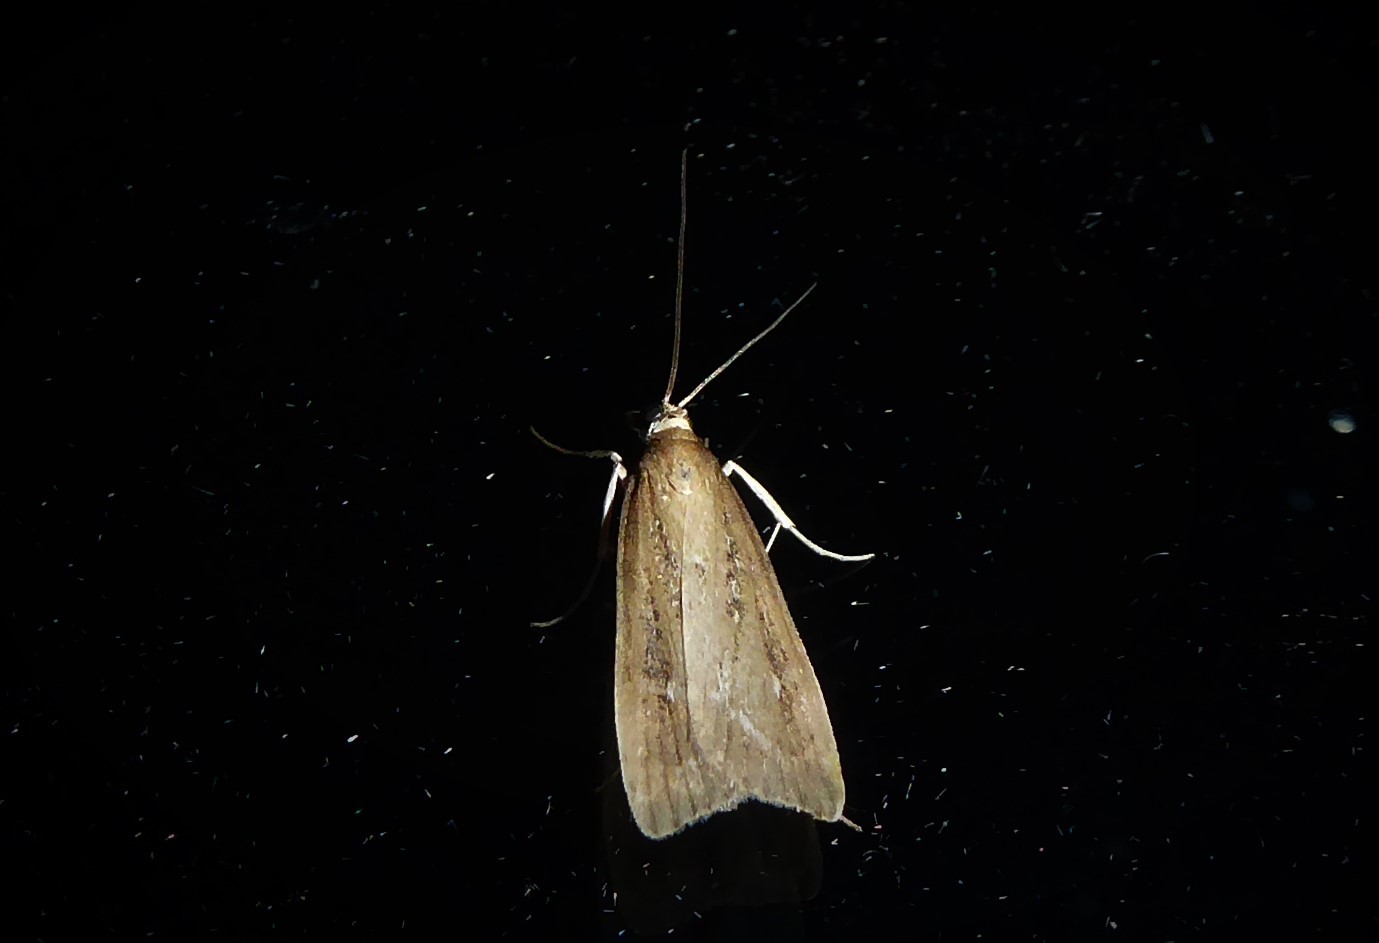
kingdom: Animalia
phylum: Arthropoda
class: Insecta
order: Lepidoptera
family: Crambidae
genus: Eudonia
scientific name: Eudonia octophora
